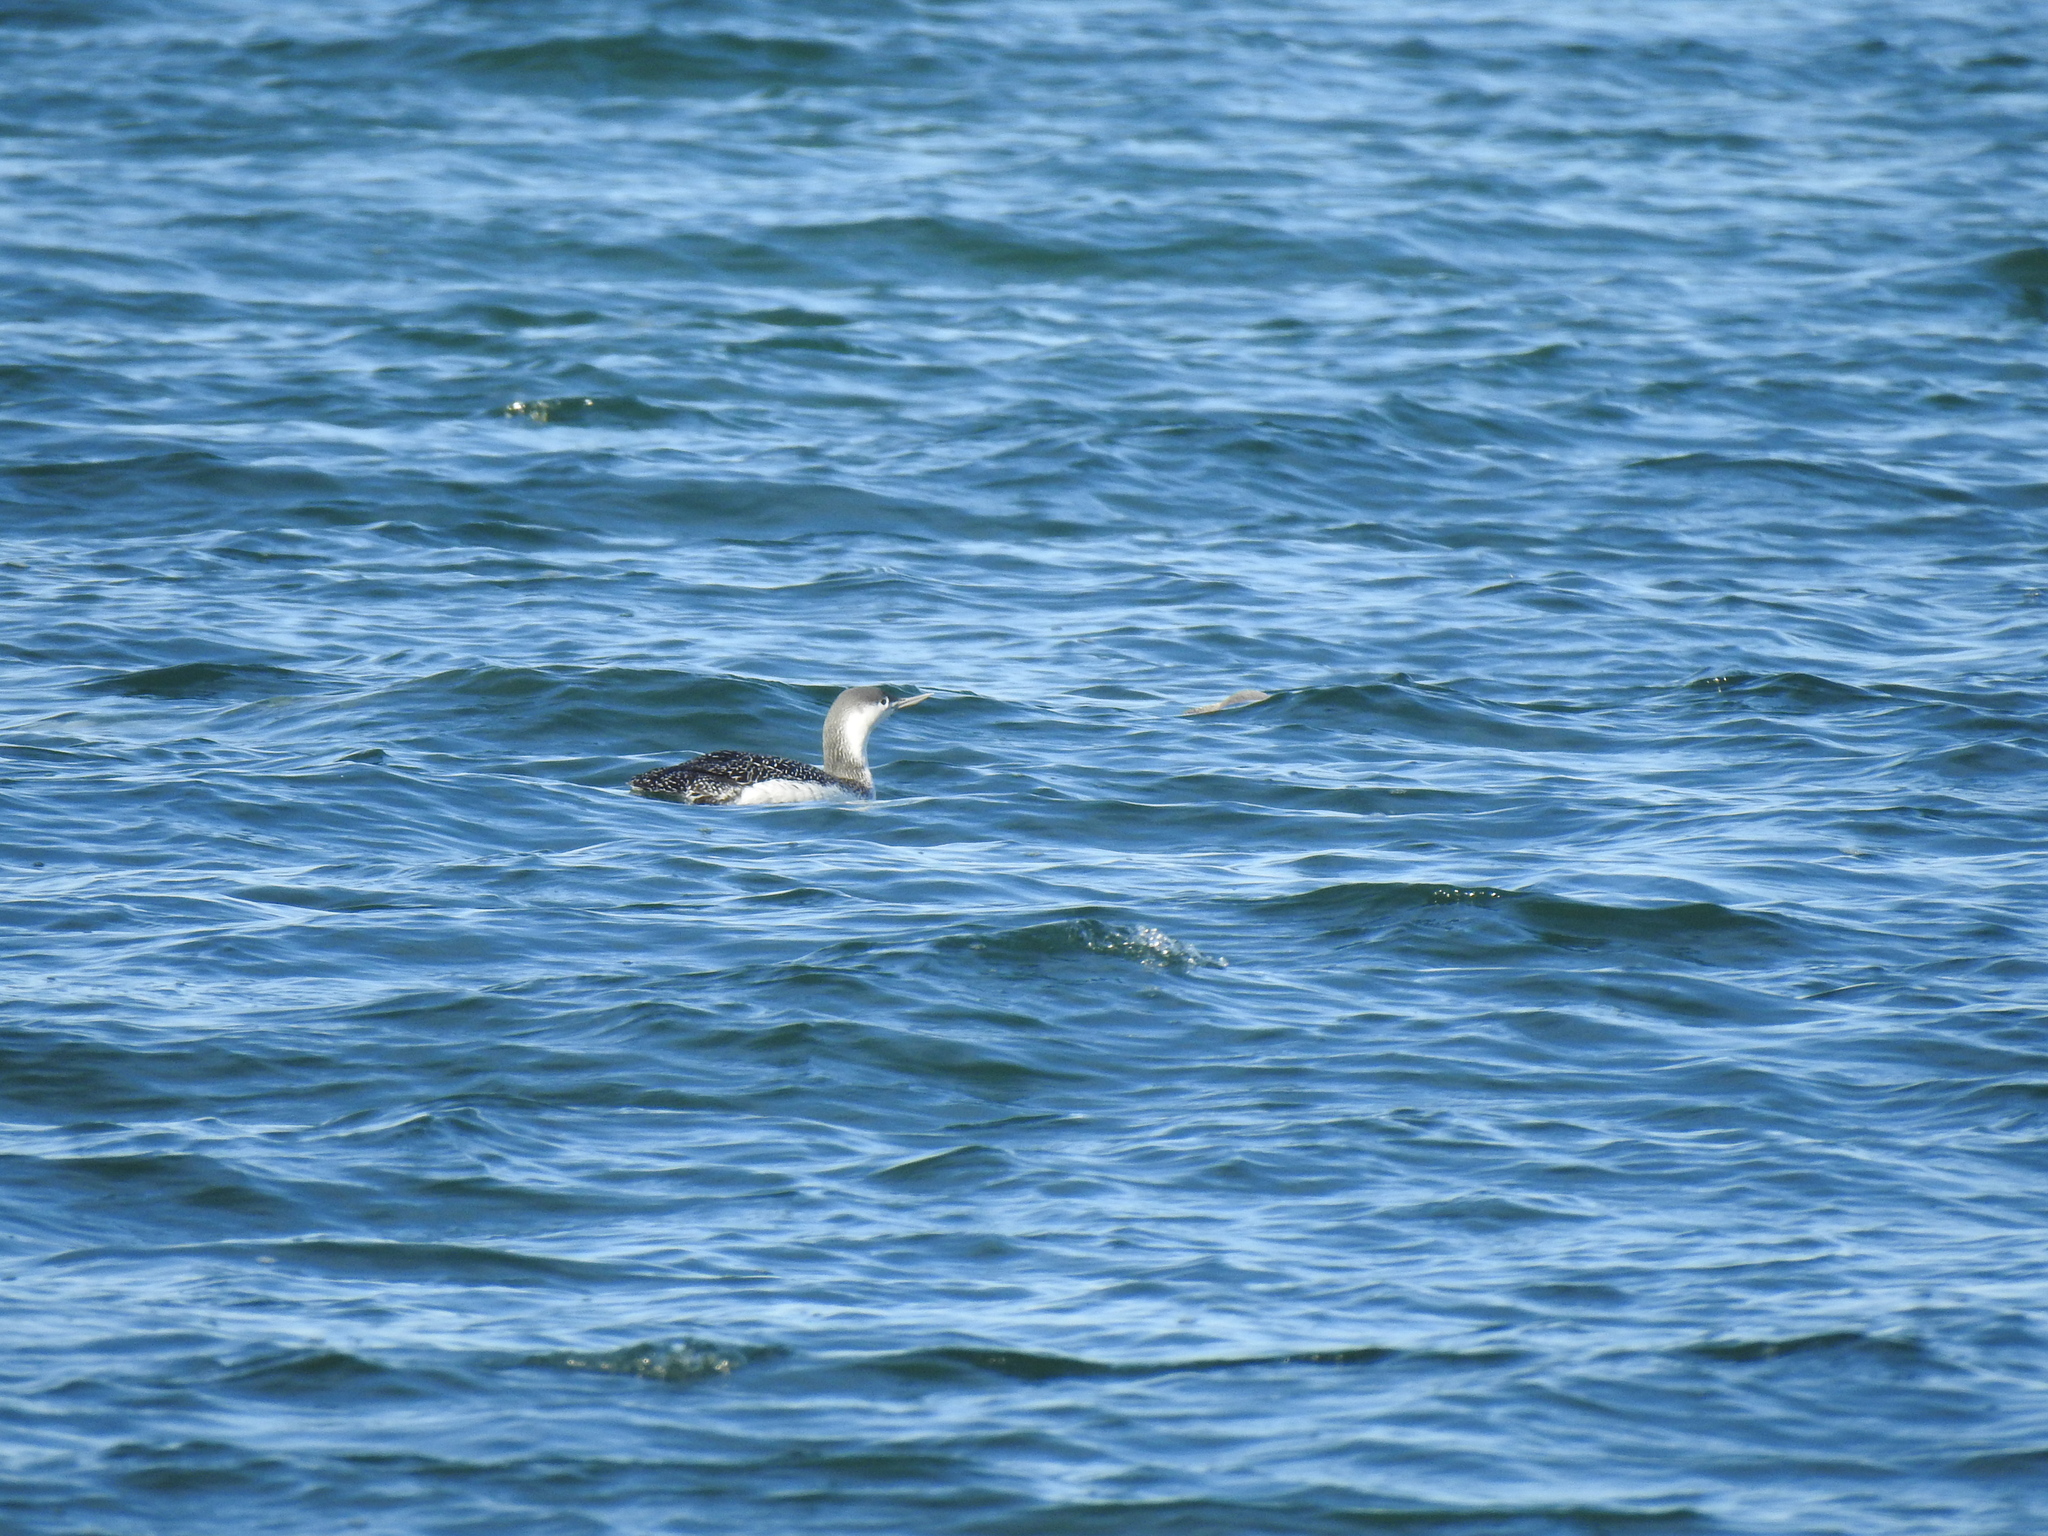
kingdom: Animalia
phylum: Chordata
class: Aves
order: Gaviiformes
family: Gaviidae
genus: Gavia
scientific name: Gavia stellata
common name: Red-throated loon
